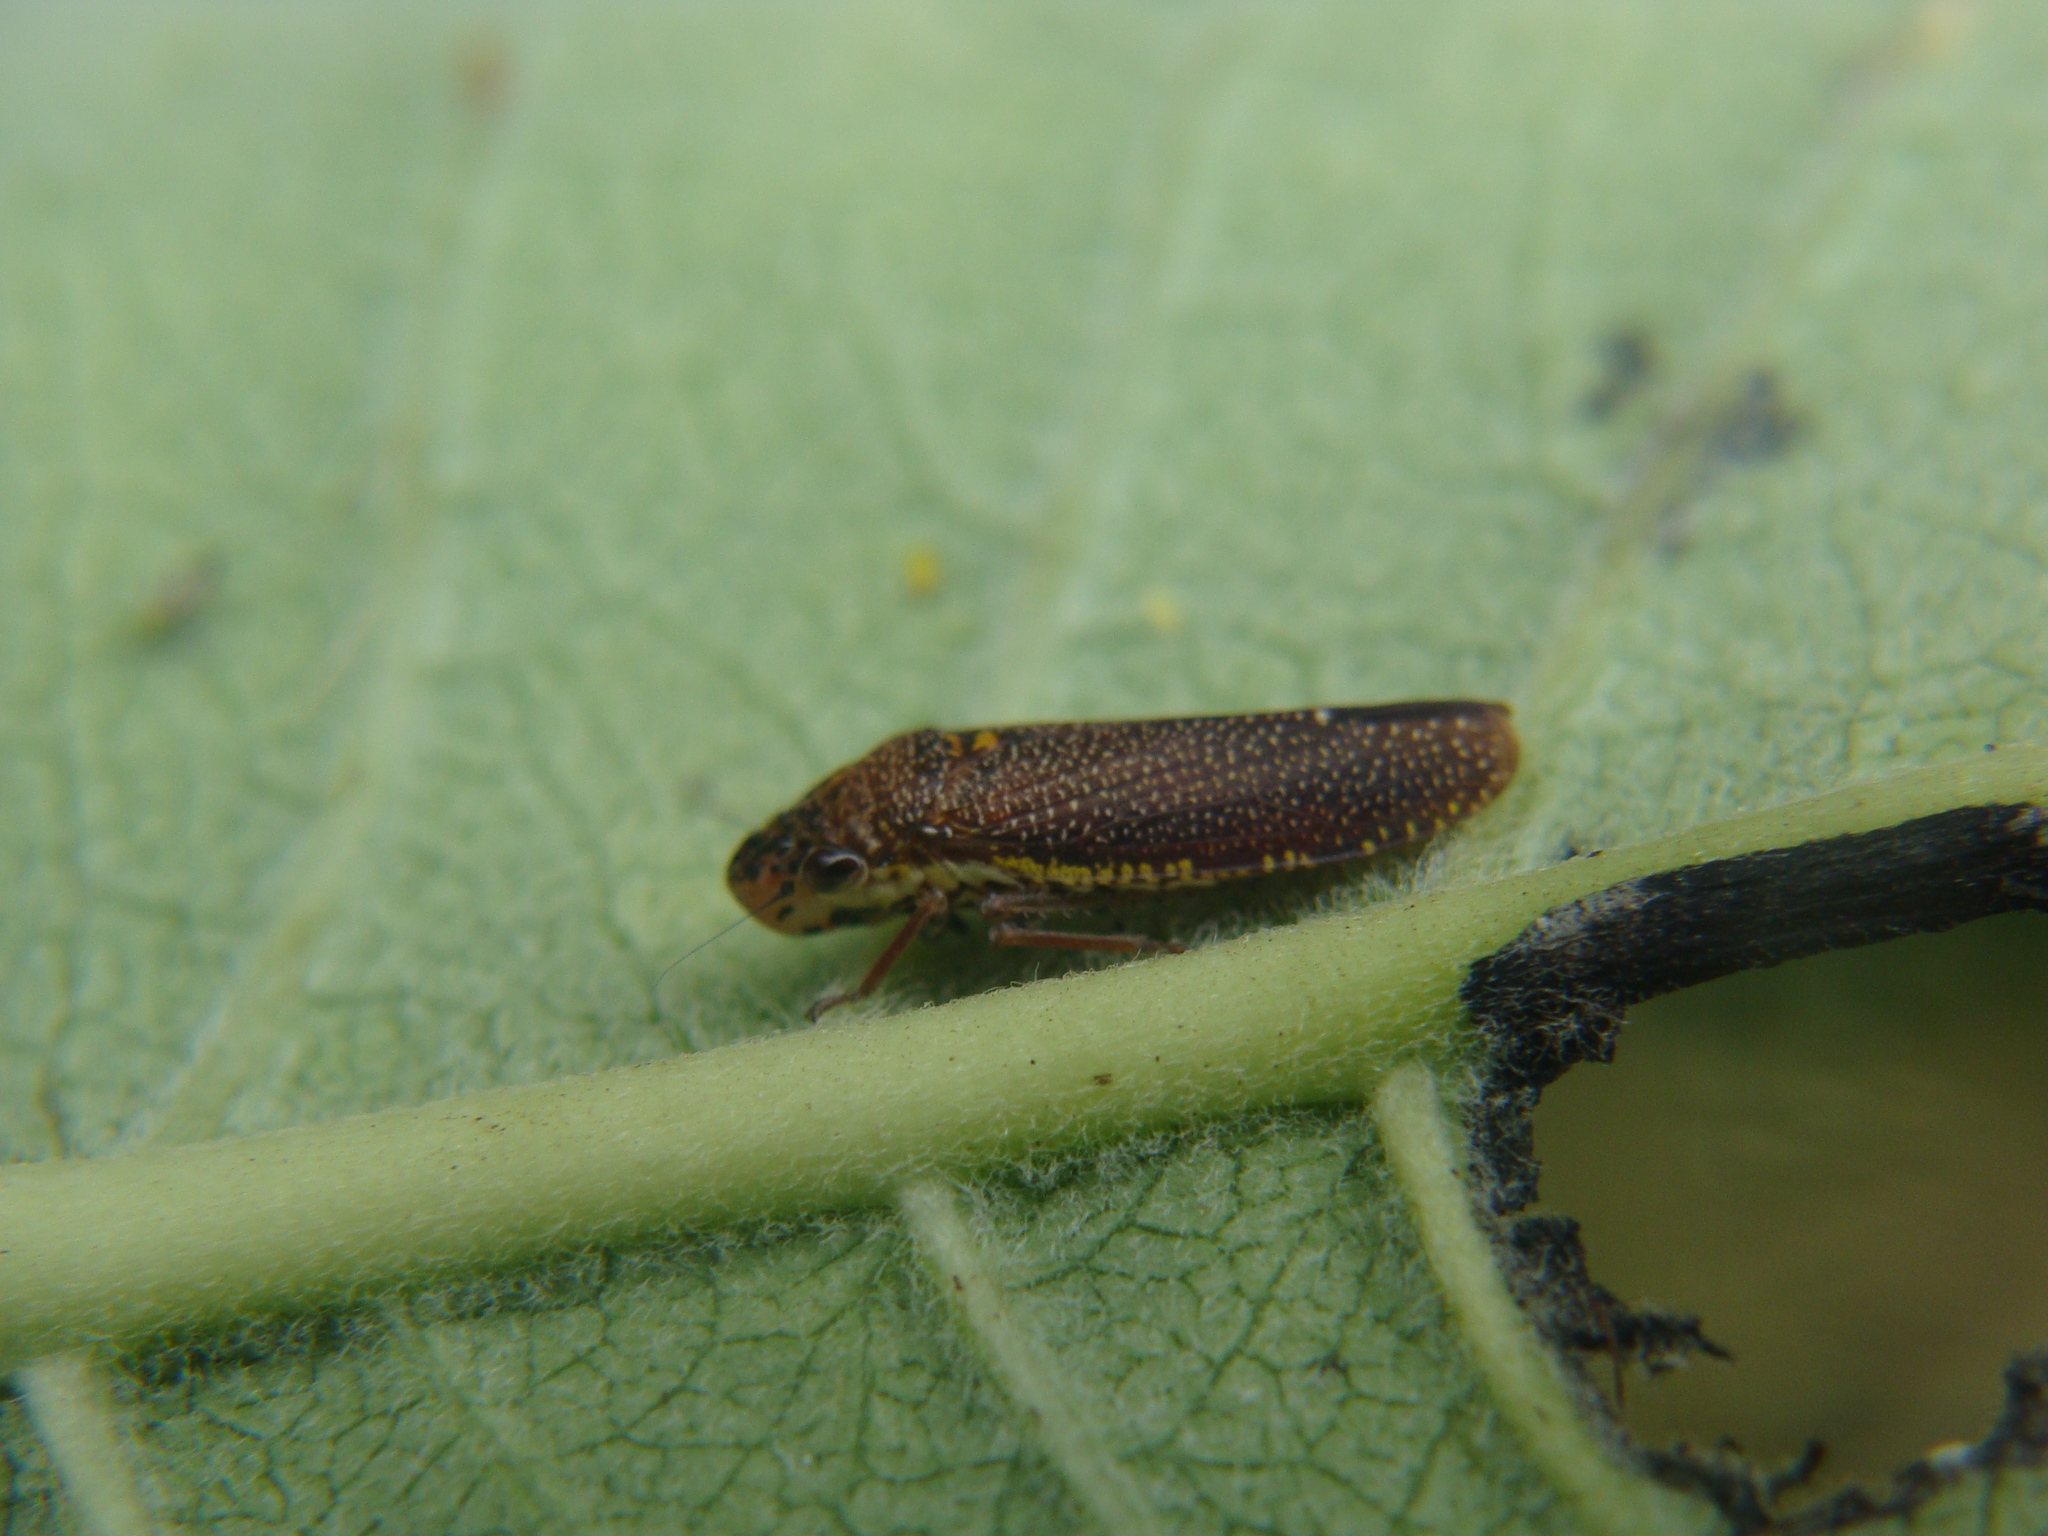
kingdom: Animalia
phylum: Arthropoda
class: Insecta
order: Hemiptera
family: Cicadellidae
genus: Paraulacizes
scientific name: Paraulacizes irrorata
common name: Speckled sharpshooter
